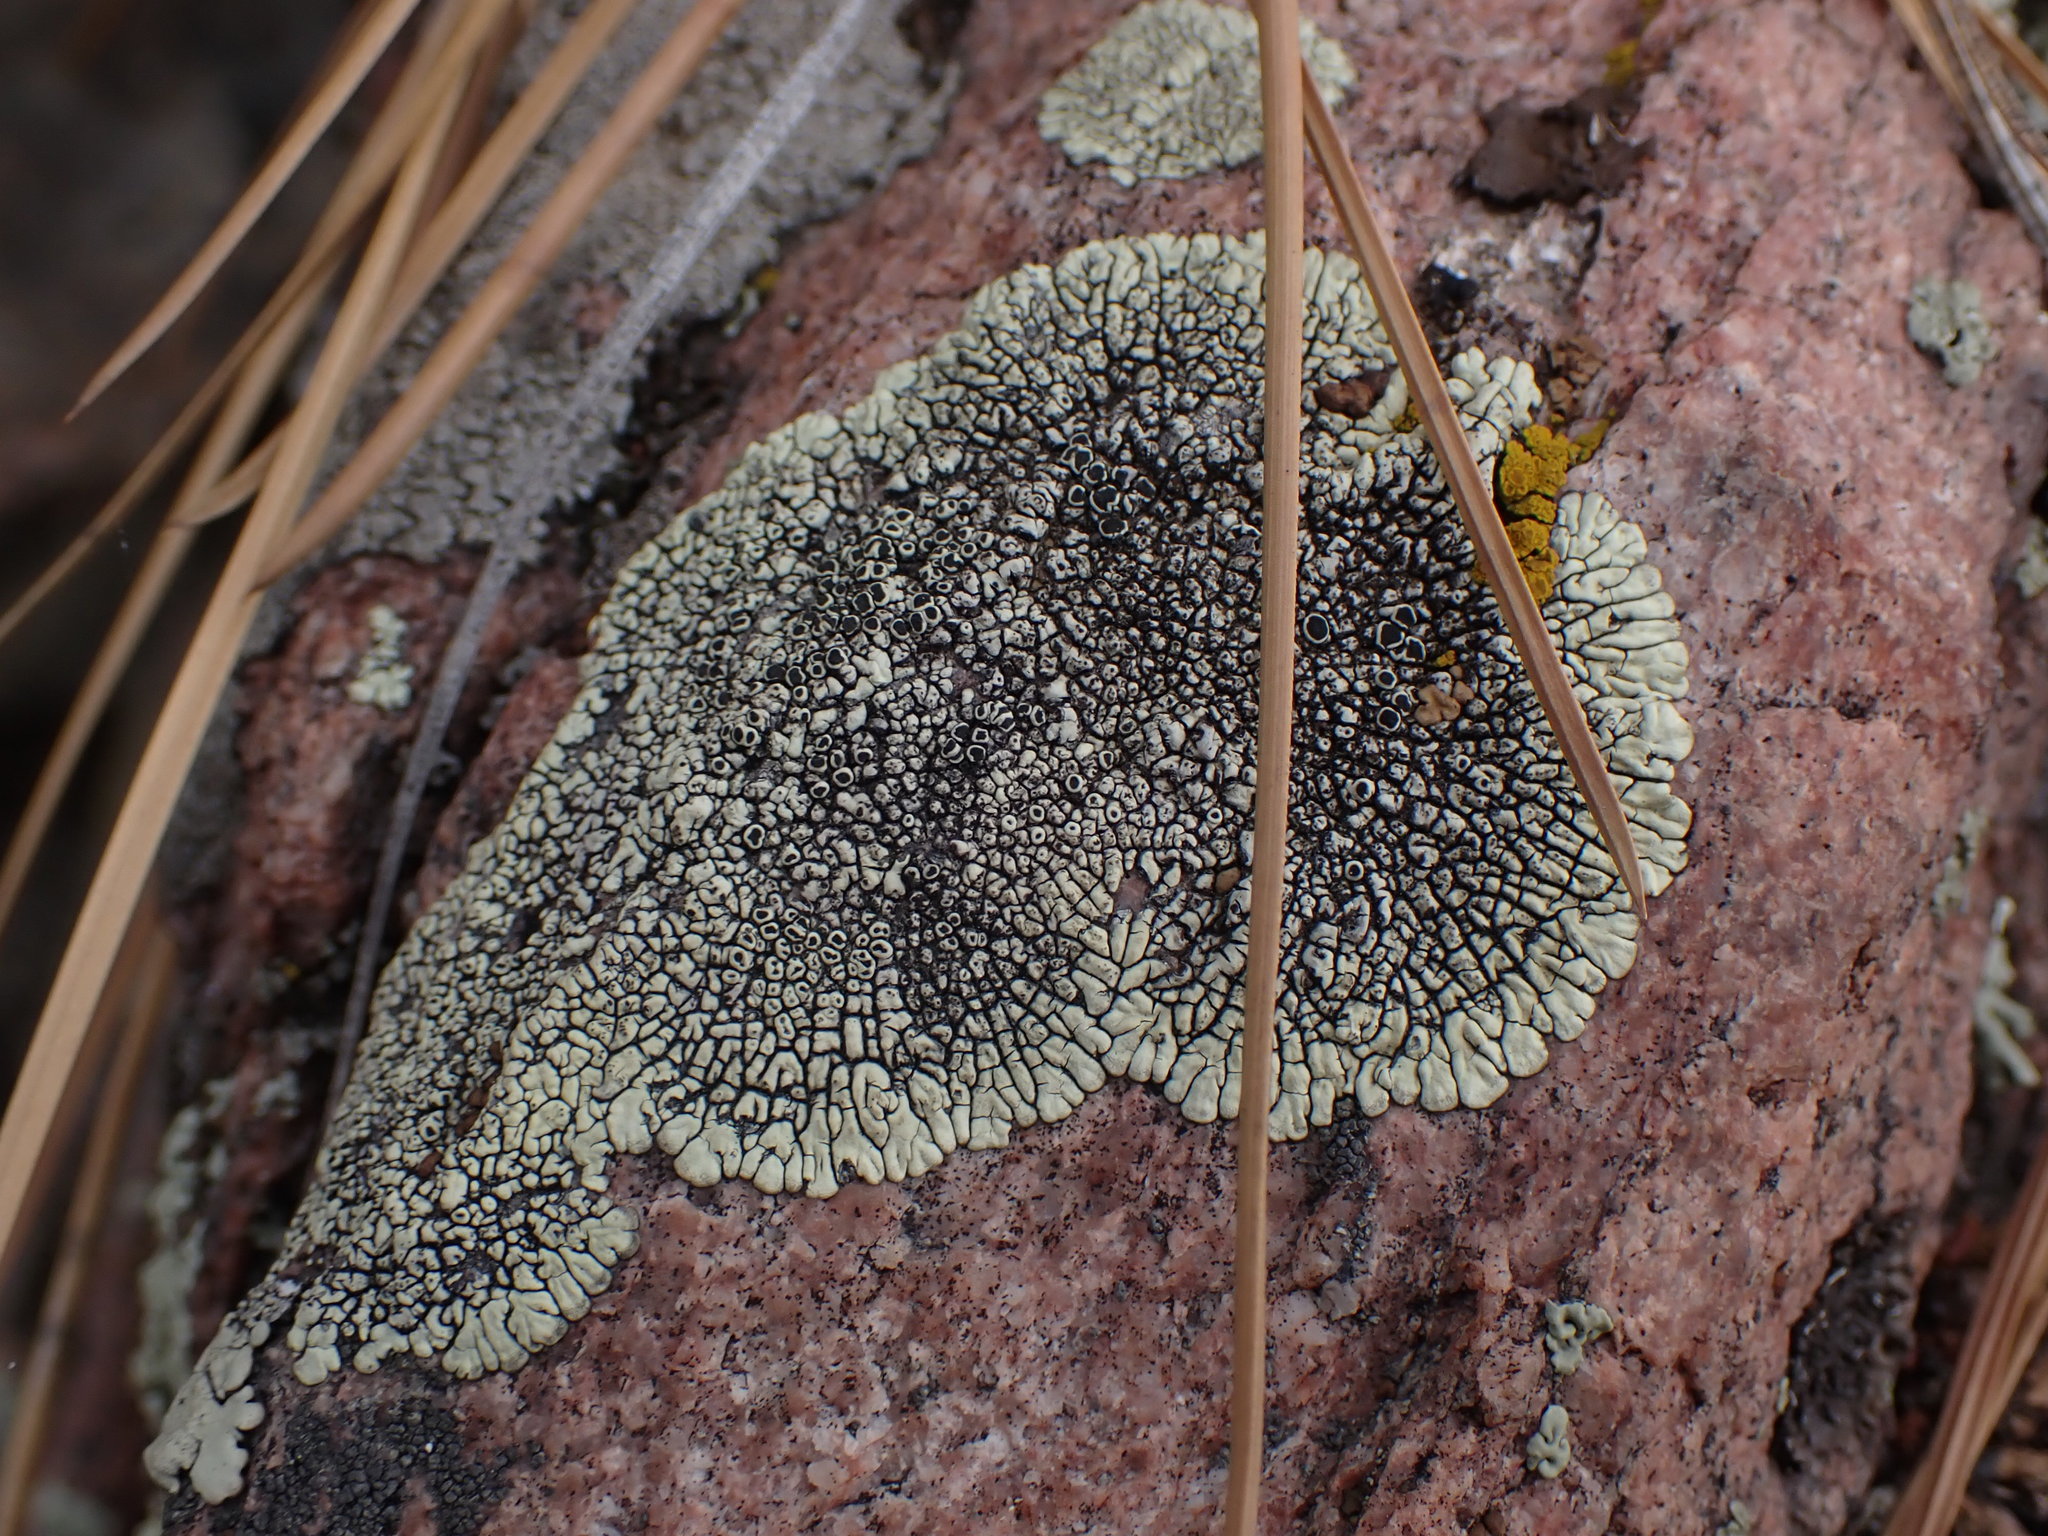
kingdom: Fungi
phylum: Ascomycota
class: Lecanoromycetes
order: Caliciales
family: Caliciaceae
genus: Dimelaena
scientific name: Dimelaena oreina
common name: Golden moonglow lichen
